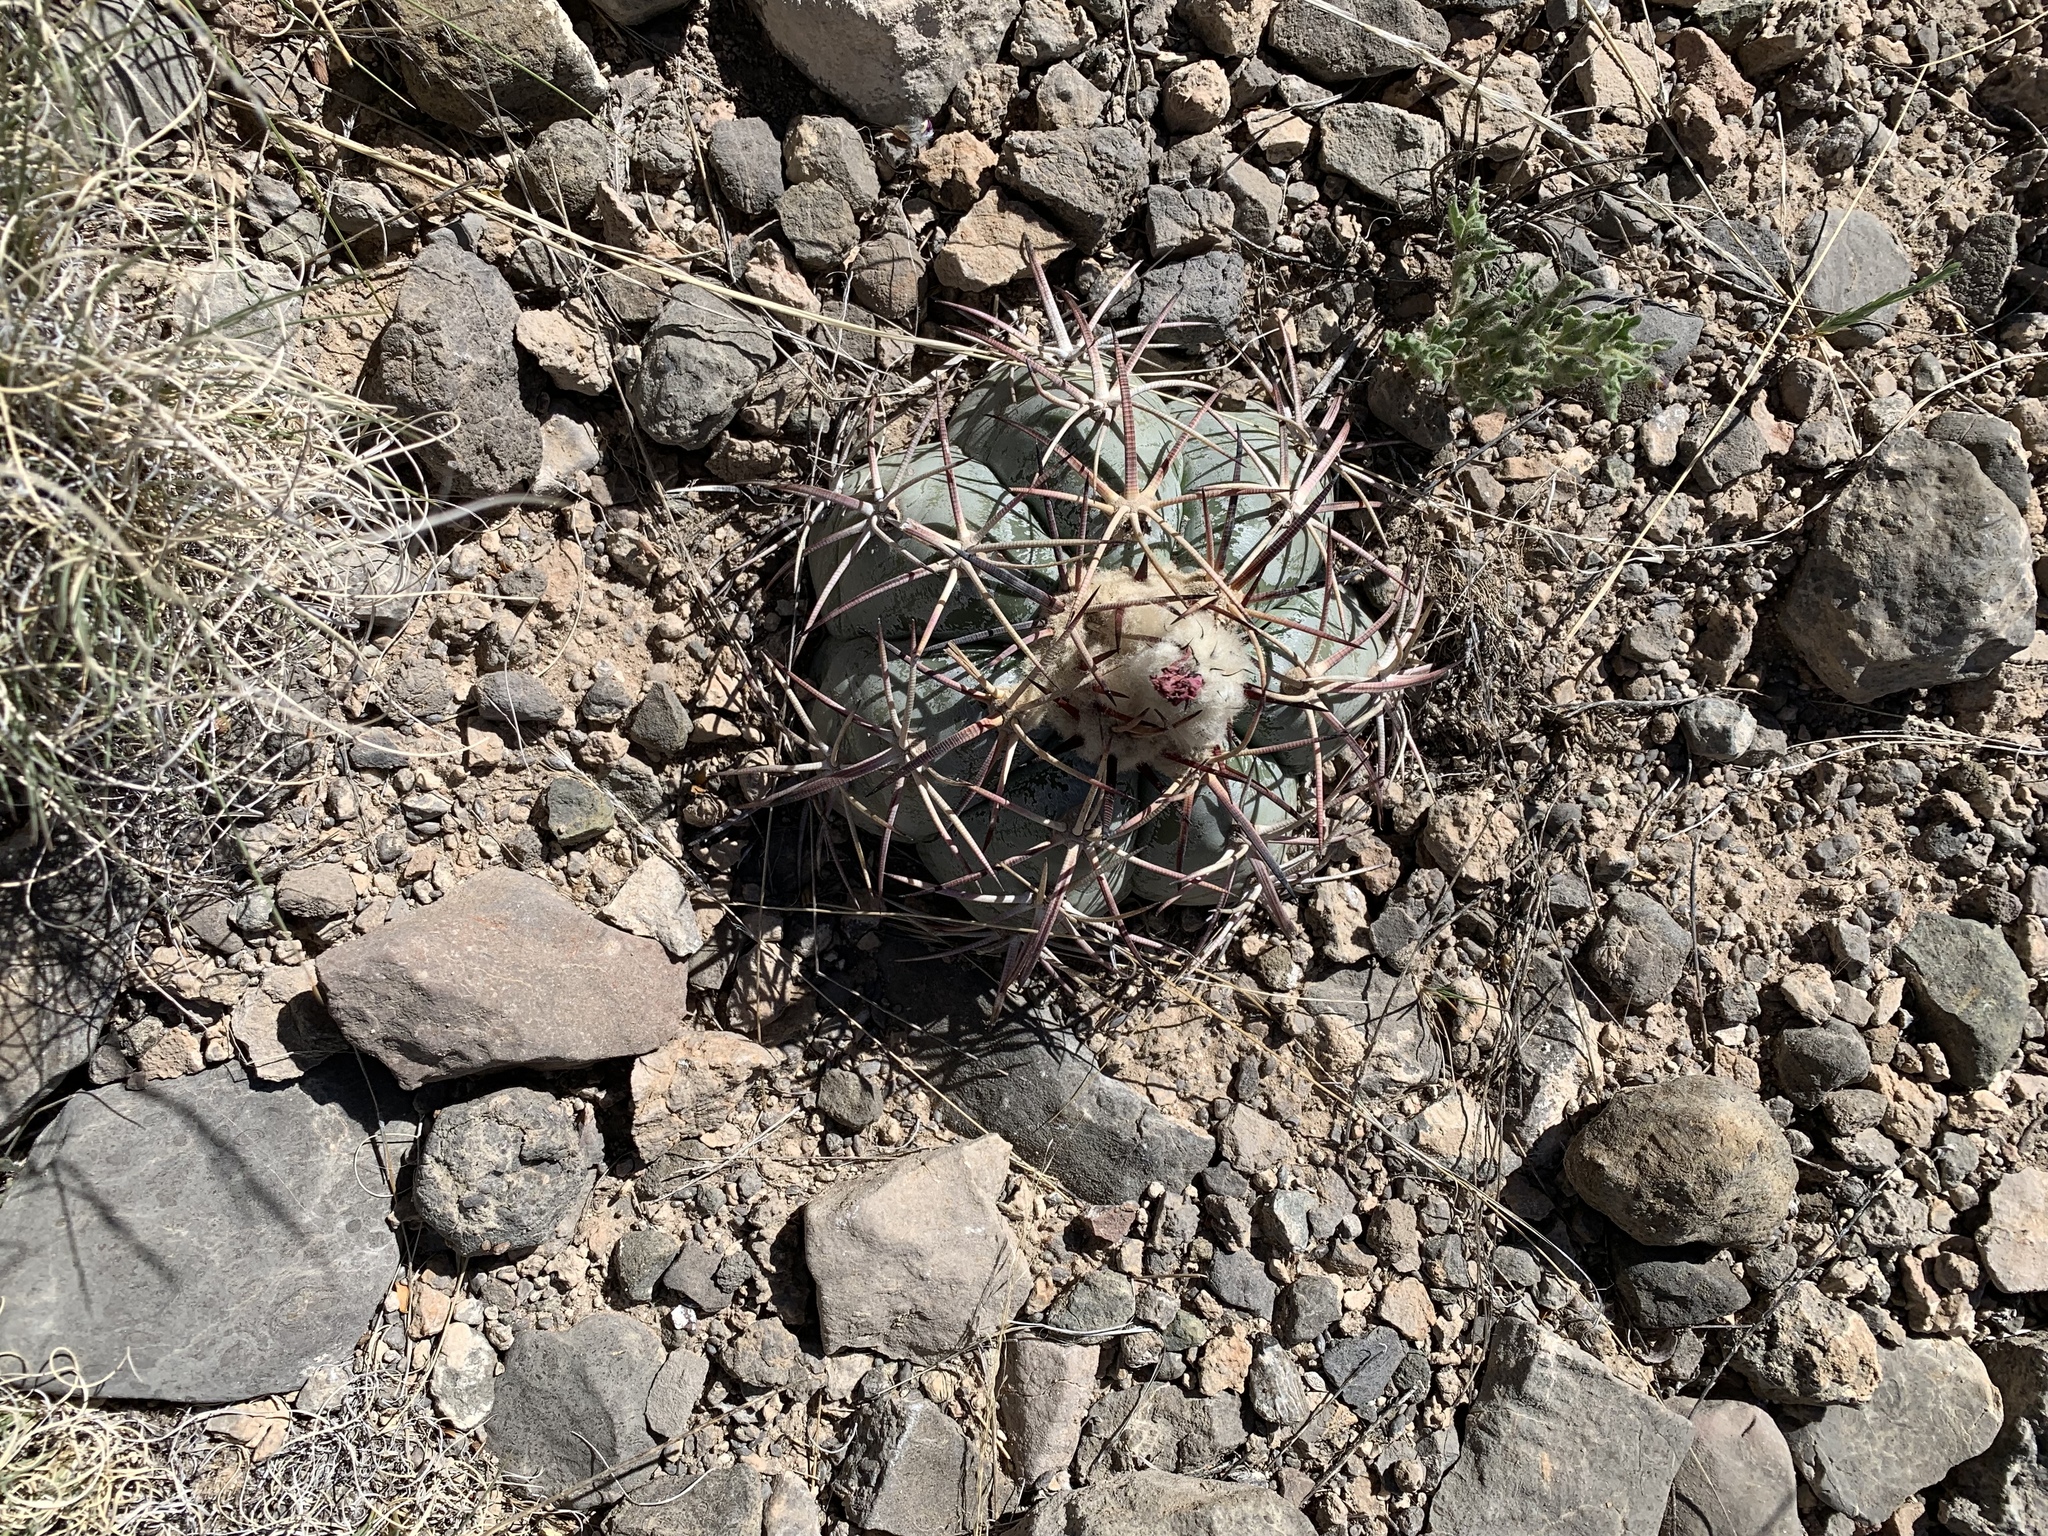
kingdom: Plantae
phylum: Tracheophyta
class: Magnoliopsida
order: Caryophyllales
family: Cactaceae
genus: Echinocactus
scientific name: Echinocactus horizonthalonius
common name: Devilshead
